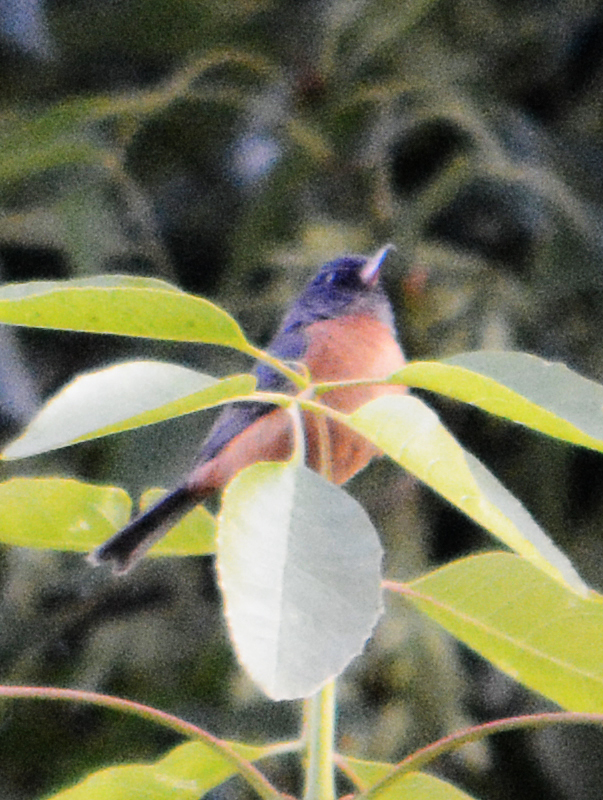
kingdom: Animalia
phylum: Chordata
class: Aves
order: Passeriformes
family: Thraupidae
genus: Diglossa
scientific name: Diglossa baritula
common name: Cinnamon-bellied flowerpiercer
